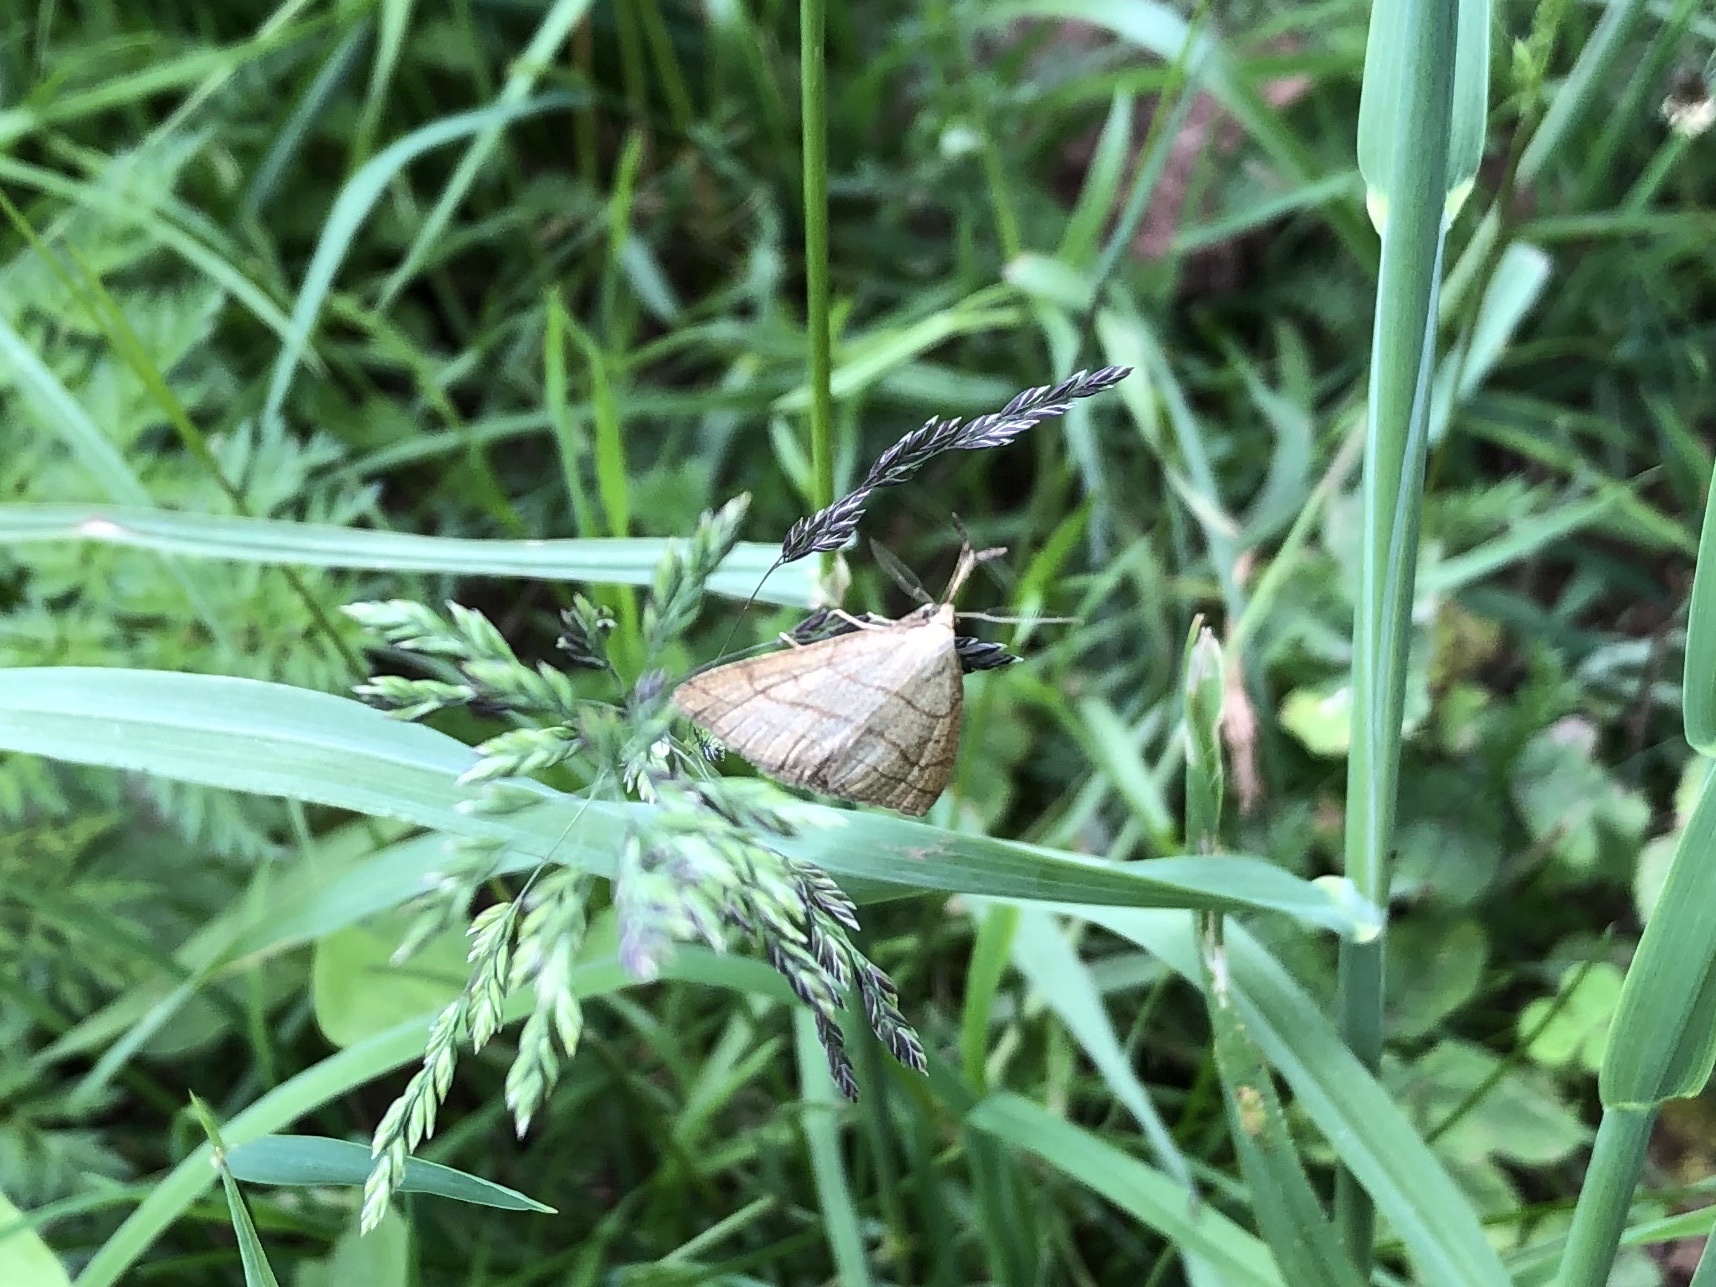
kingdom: Animalia
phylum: Arthropoda
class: Insecta
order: Lepidoptera
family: Erebidae
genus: Polypogon
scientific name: Polypogon tentacularia
